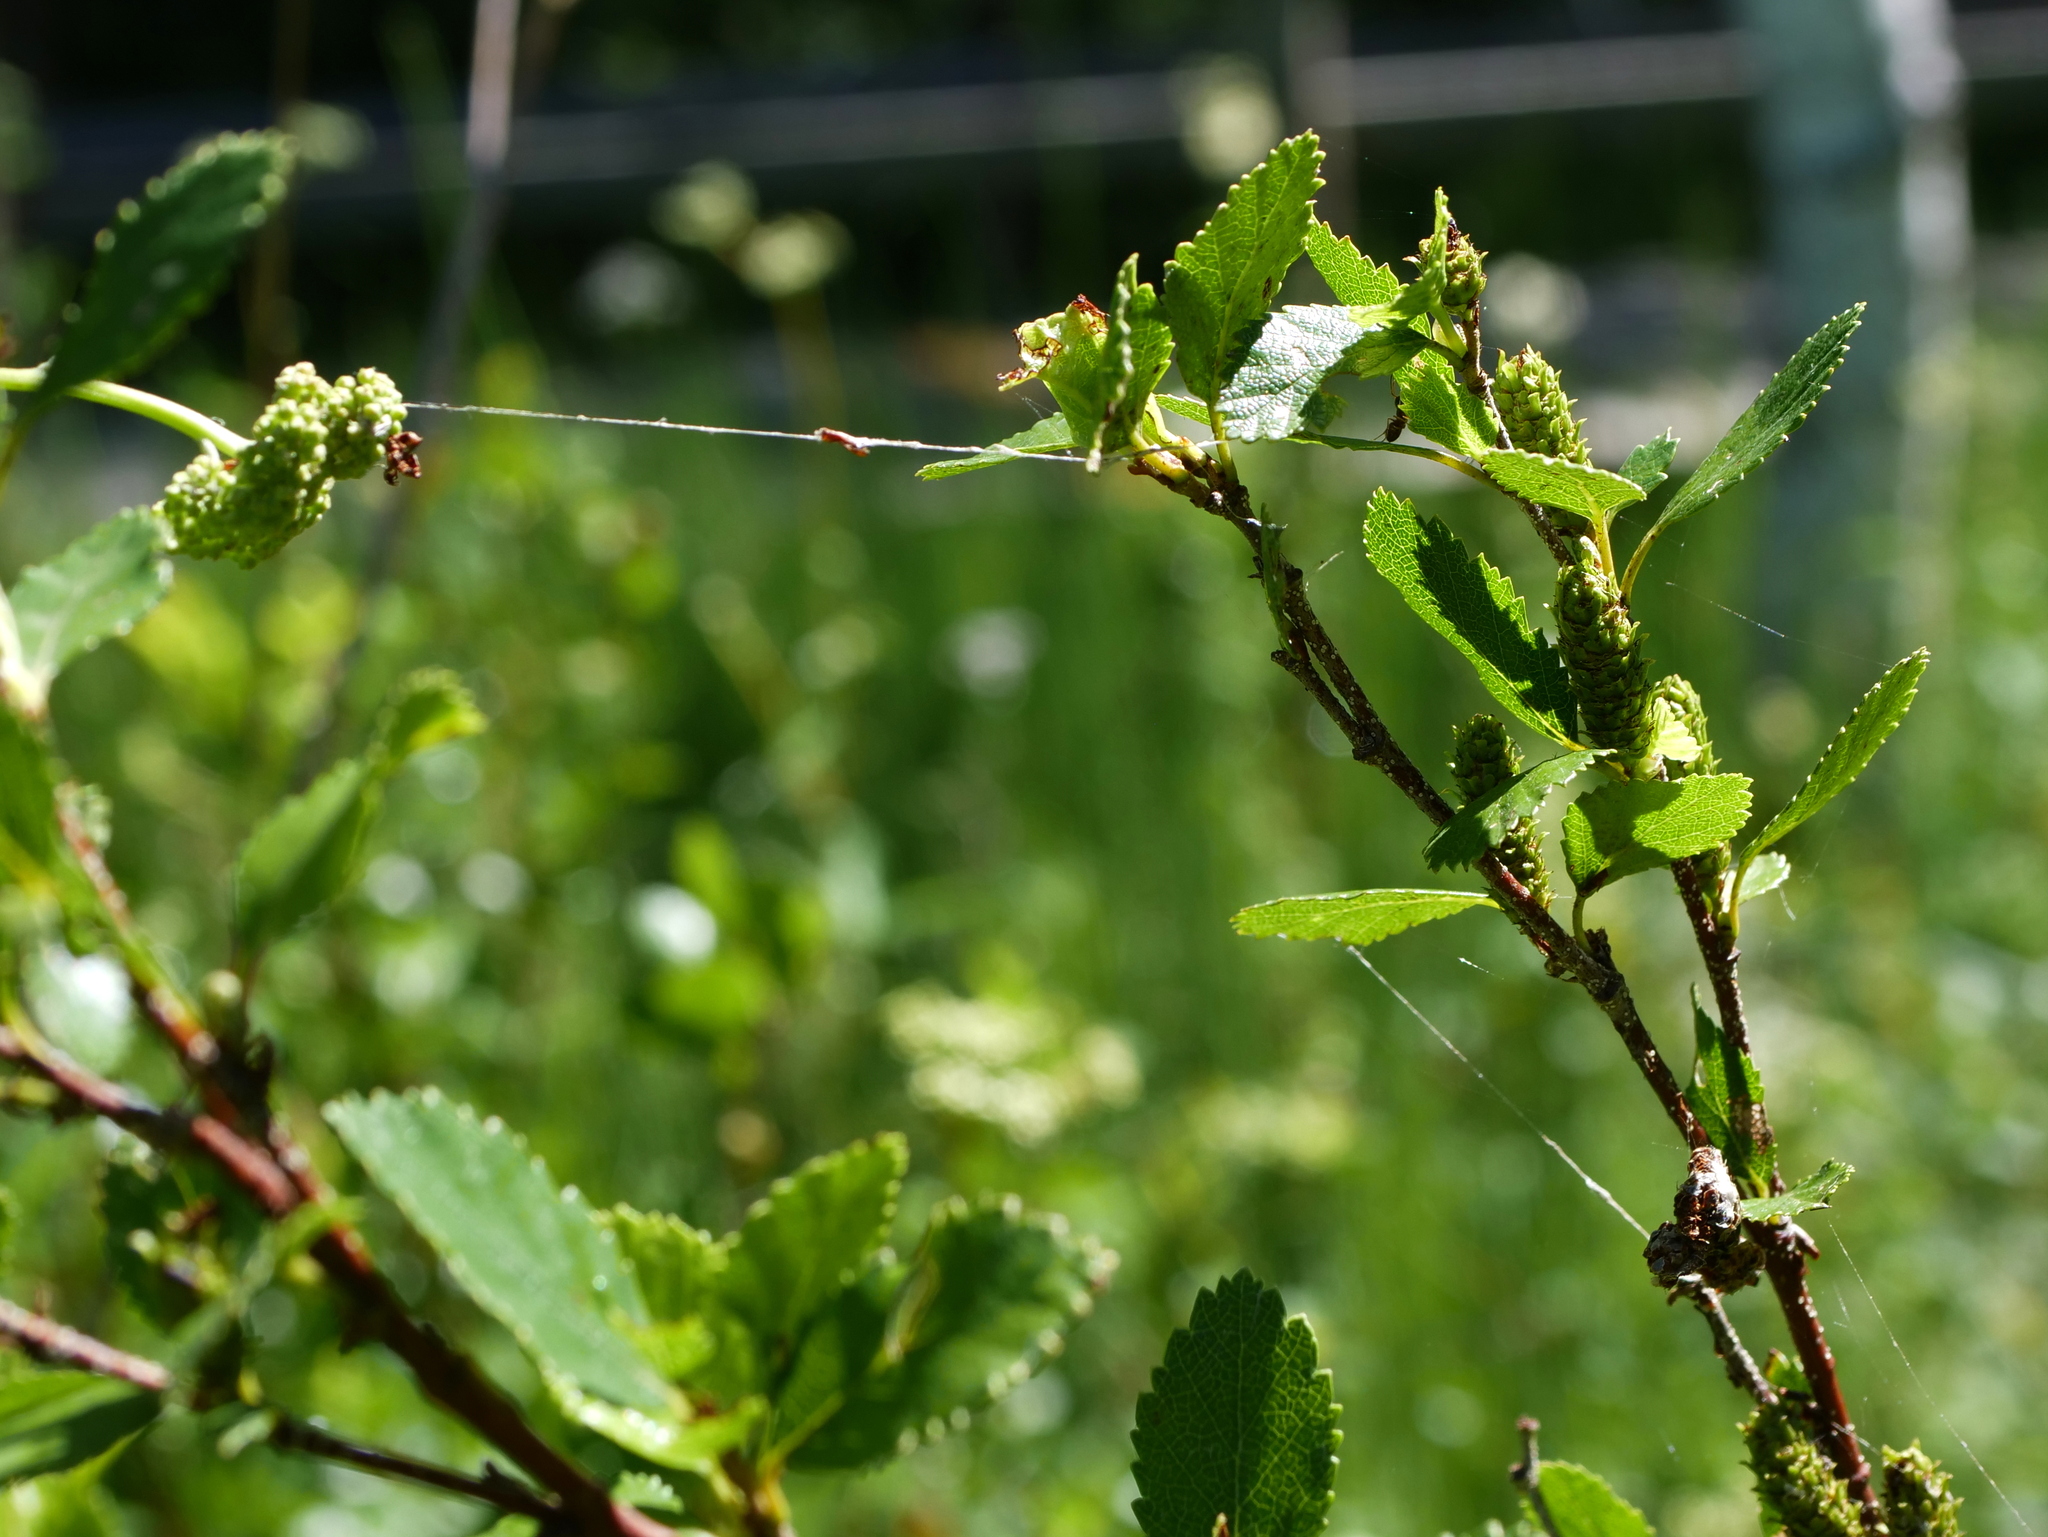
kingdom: Plantae
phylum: Tracheophyta
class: Magnoliopsida
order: Fagales
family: Betulaceae
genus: Betula
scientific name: Betula humilis
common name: Shrubby birch
